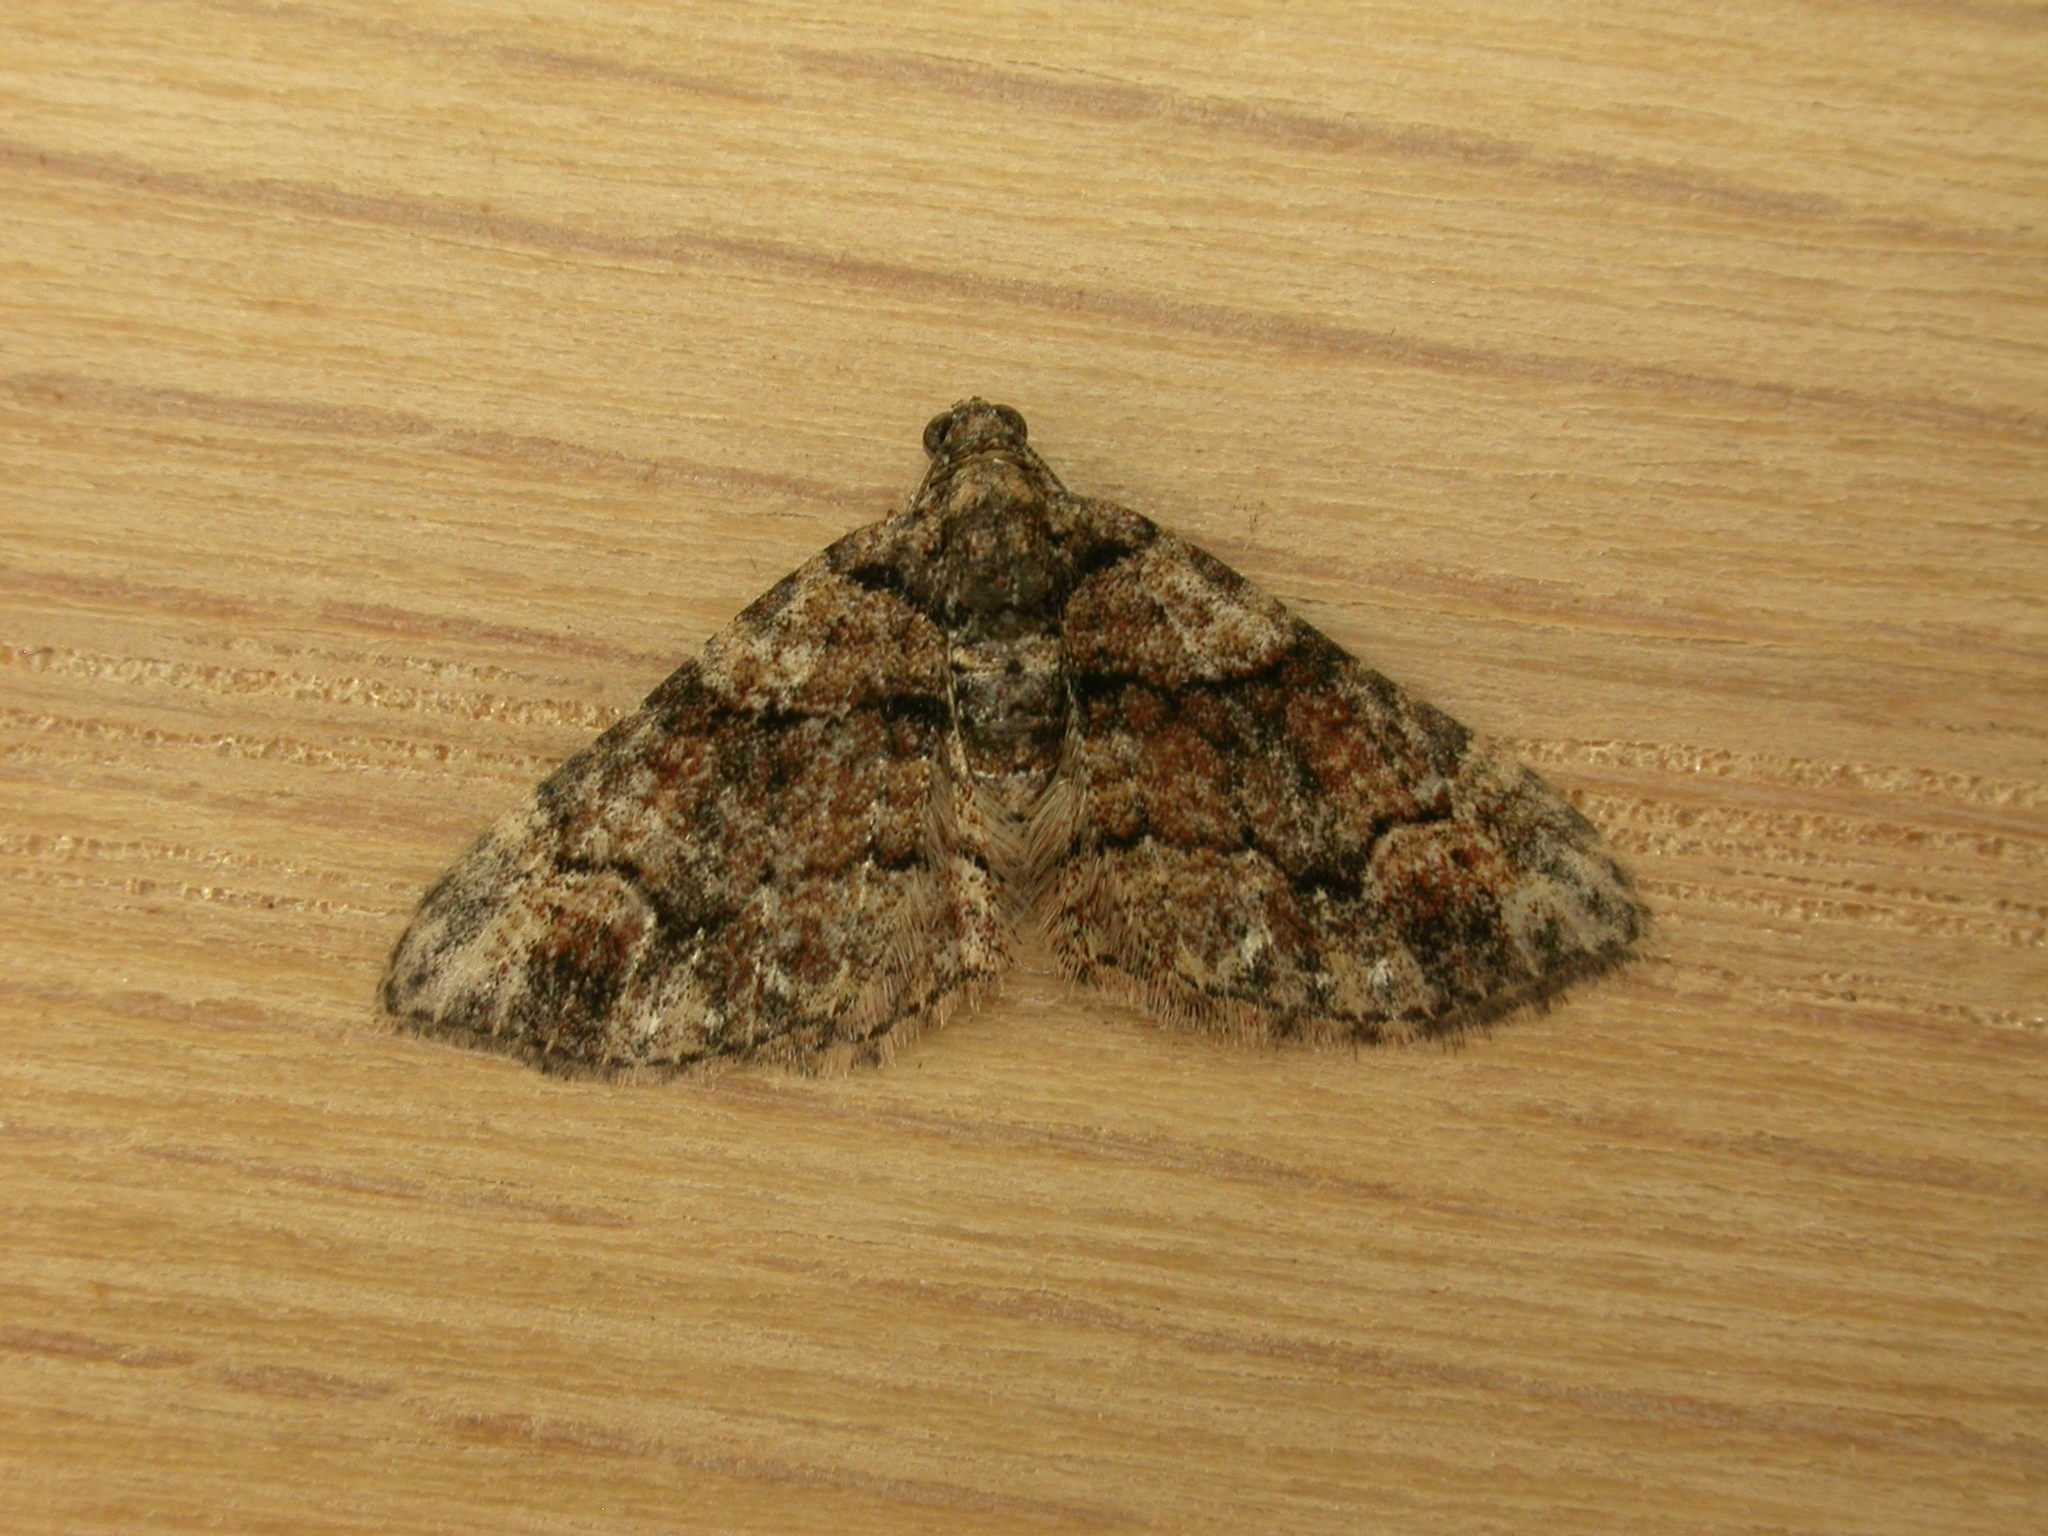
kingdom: Animalia
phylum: Arthropoda
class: Insecta
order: Lepidoptera
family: Geometridae
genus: Epyaxa
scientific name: Epyaxa sodaliata
